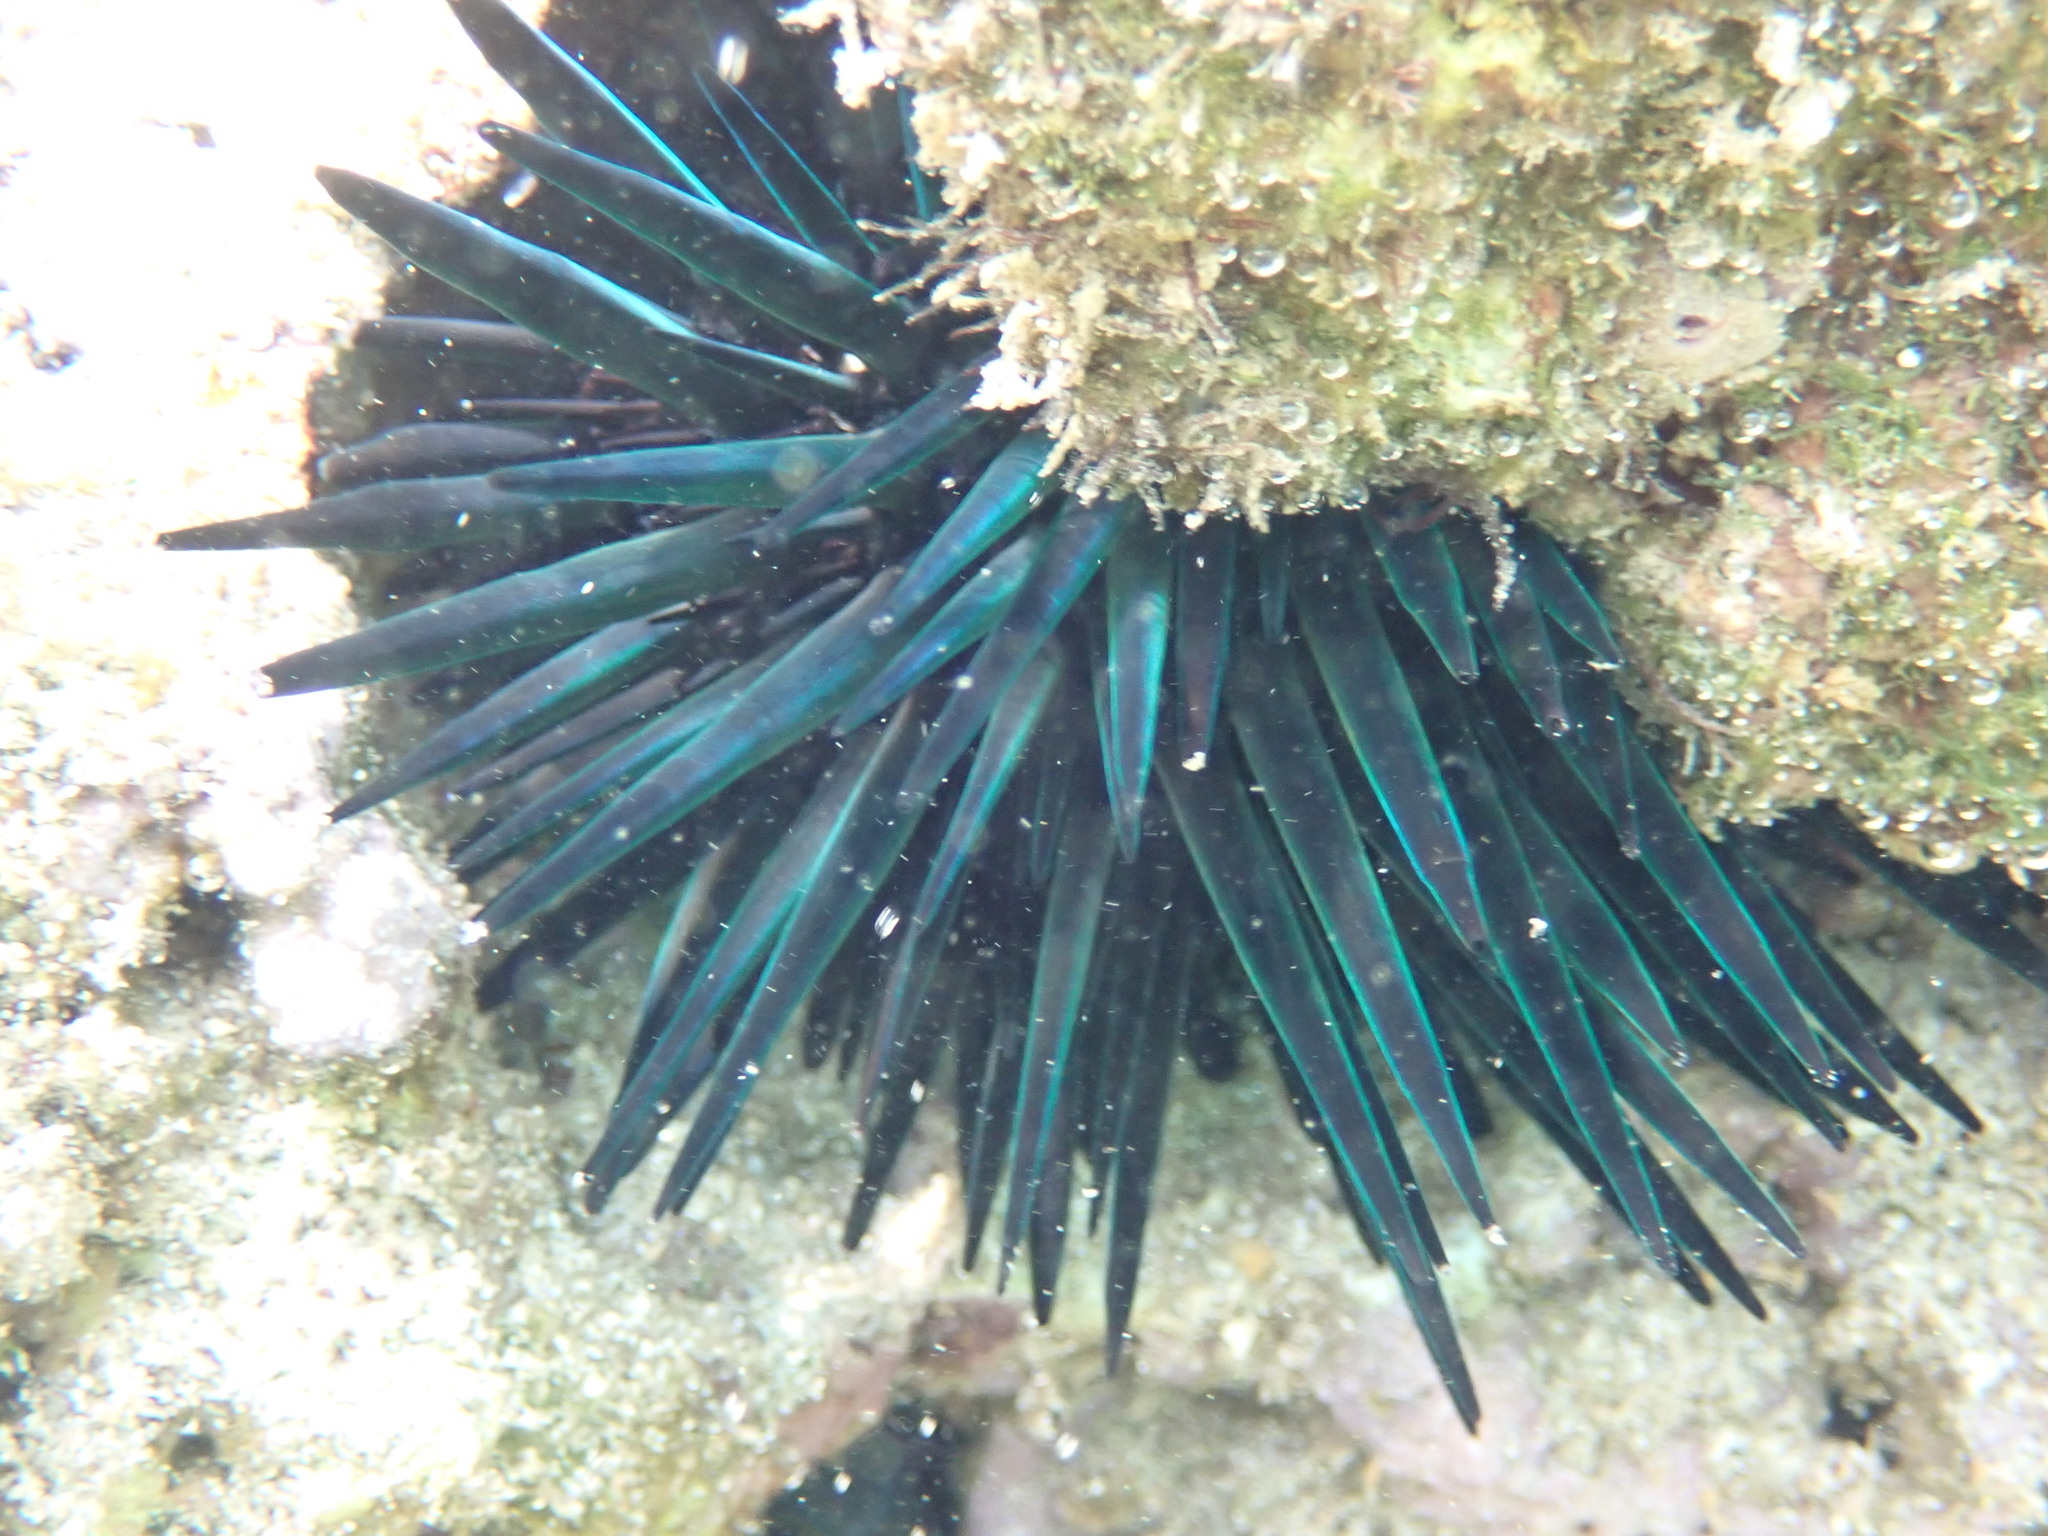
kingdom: Animalia
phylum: Echinodermata
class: Echinoidea
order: Stomopneustoida
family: Stomopneustidae
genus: Stomopneustes
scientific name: Stomopneustes variolaris
